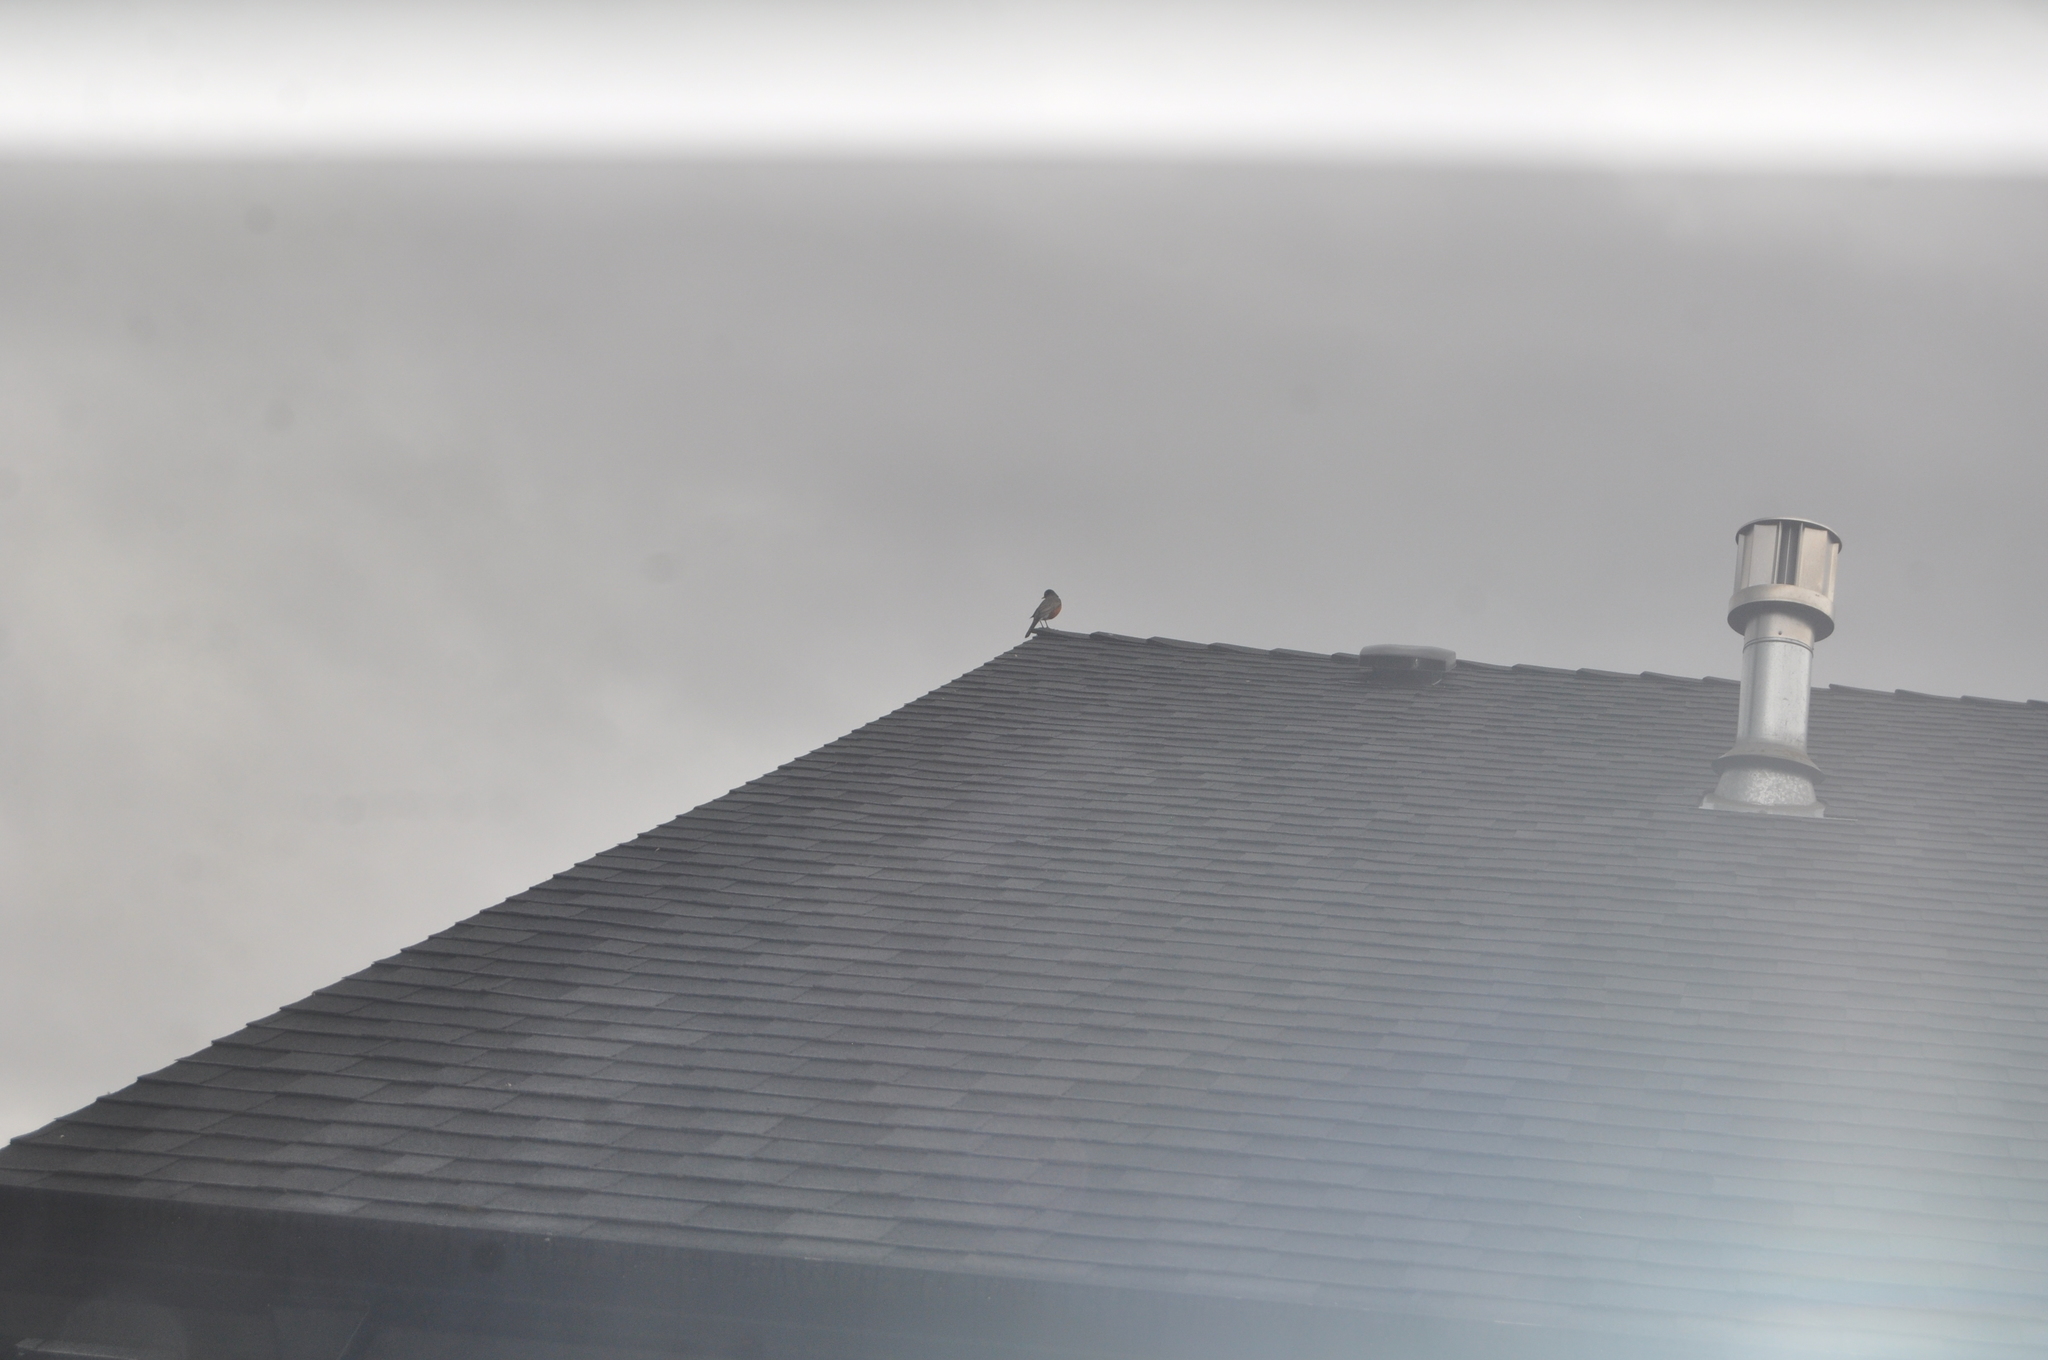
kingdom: Animalia
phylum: Chordata
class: Aves
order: Passeriformes
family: Turdidae
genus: Turdus
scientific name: Turdus migratorius
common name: American robin
